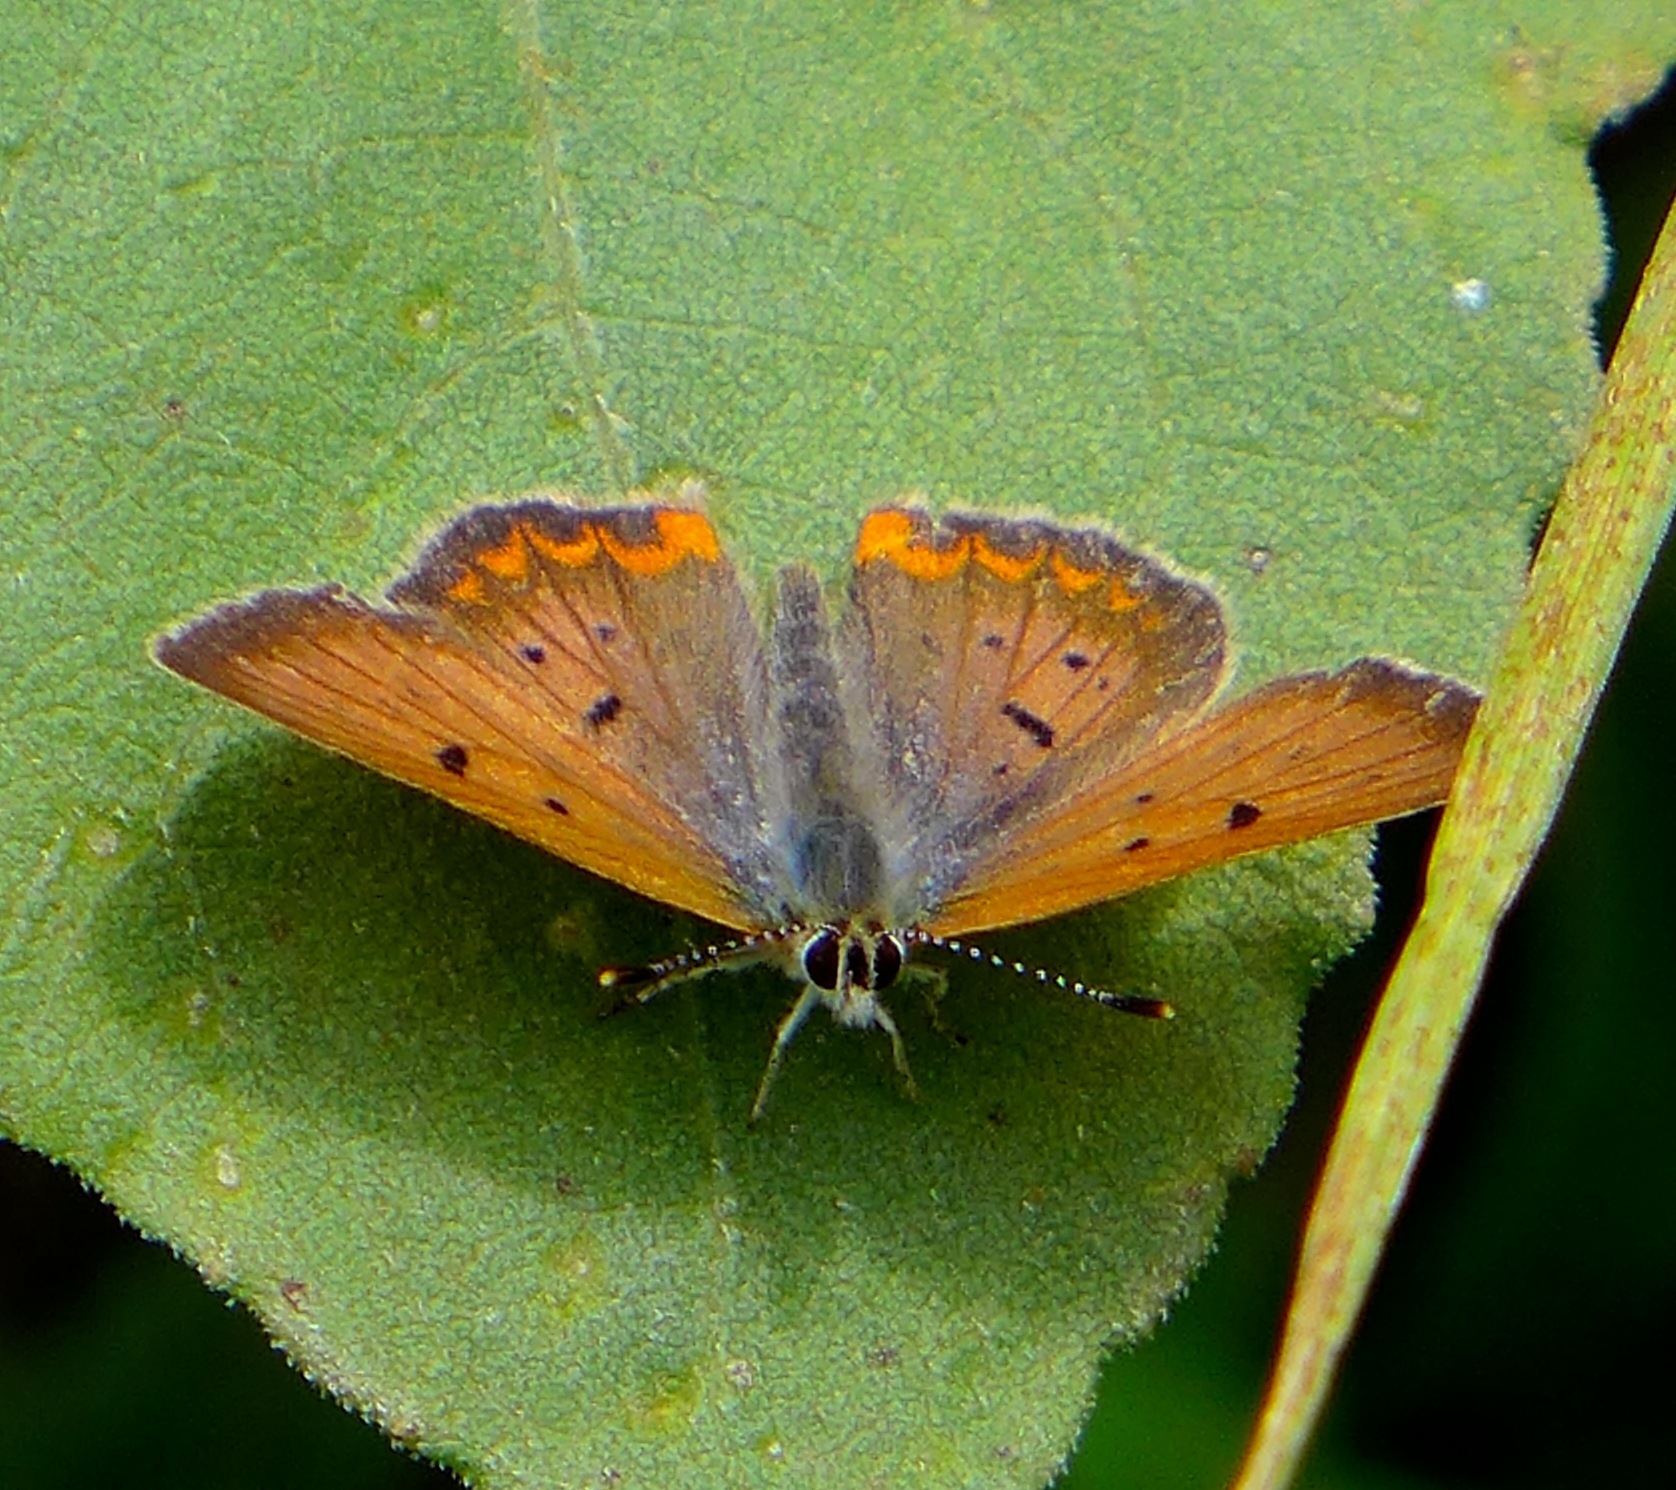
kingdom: Animalia
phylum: Arthropoda
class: Insecta
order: Lepidoptera
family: Lycaenidae
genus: Tharsalea
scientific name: Tharsalea helloides
